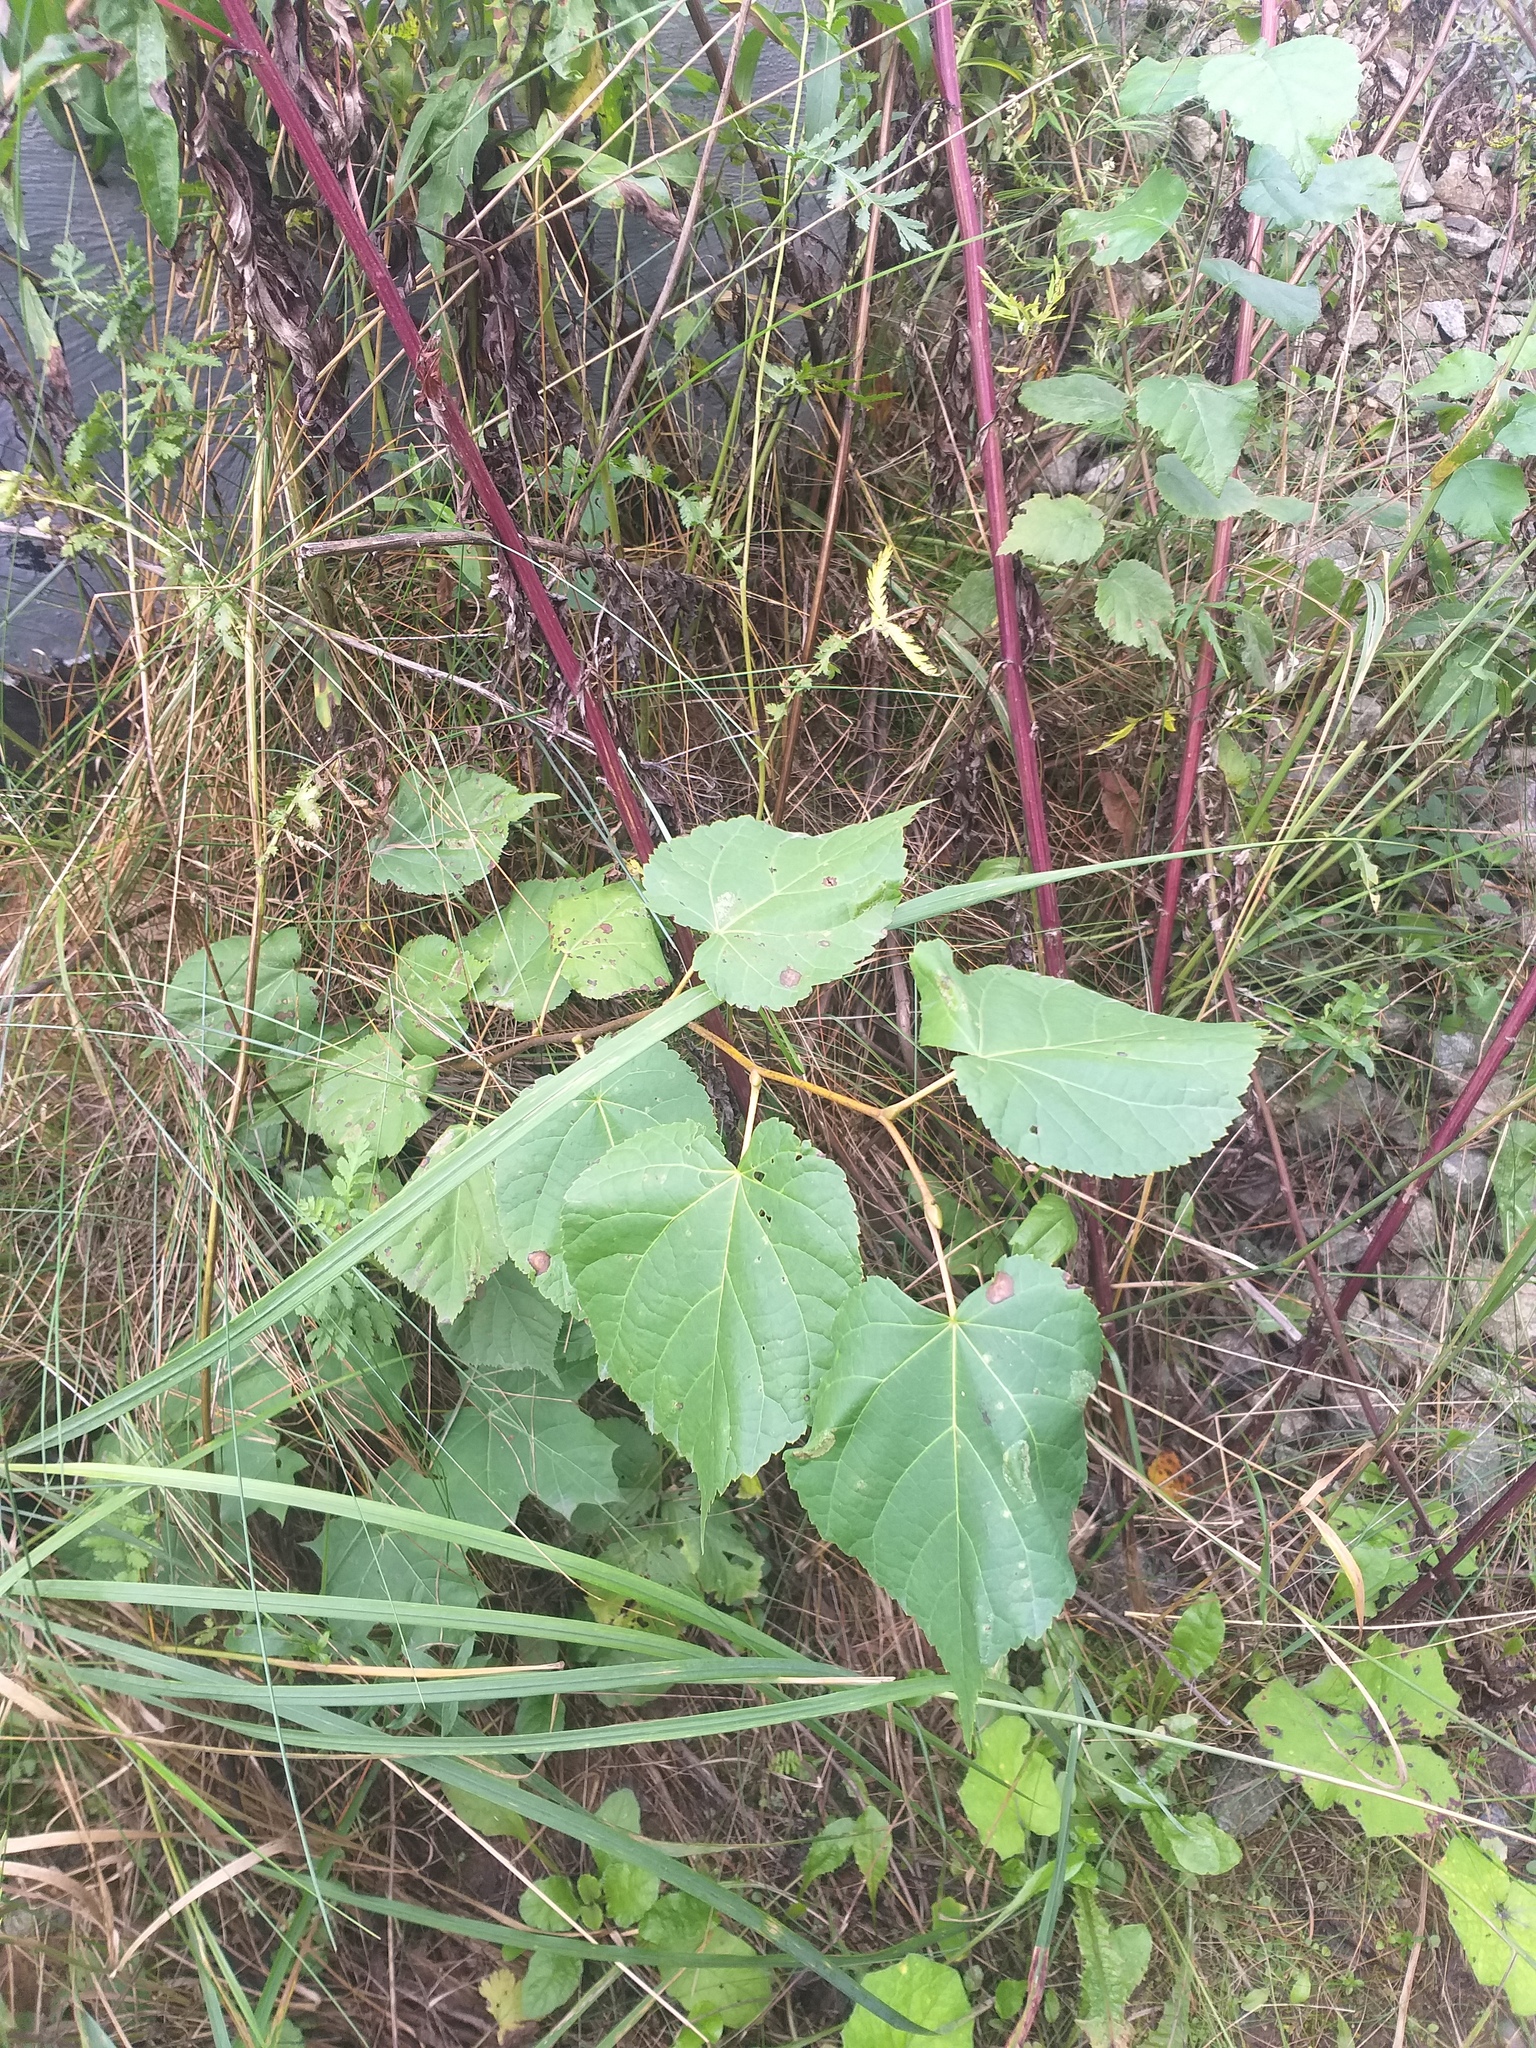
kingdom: Plantae
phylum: Tracheophyta
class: Magnoliopsida
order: Malvales
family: Malvaceae
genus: Tilia
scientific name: Tilia cordata
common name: Small-leaved lime
